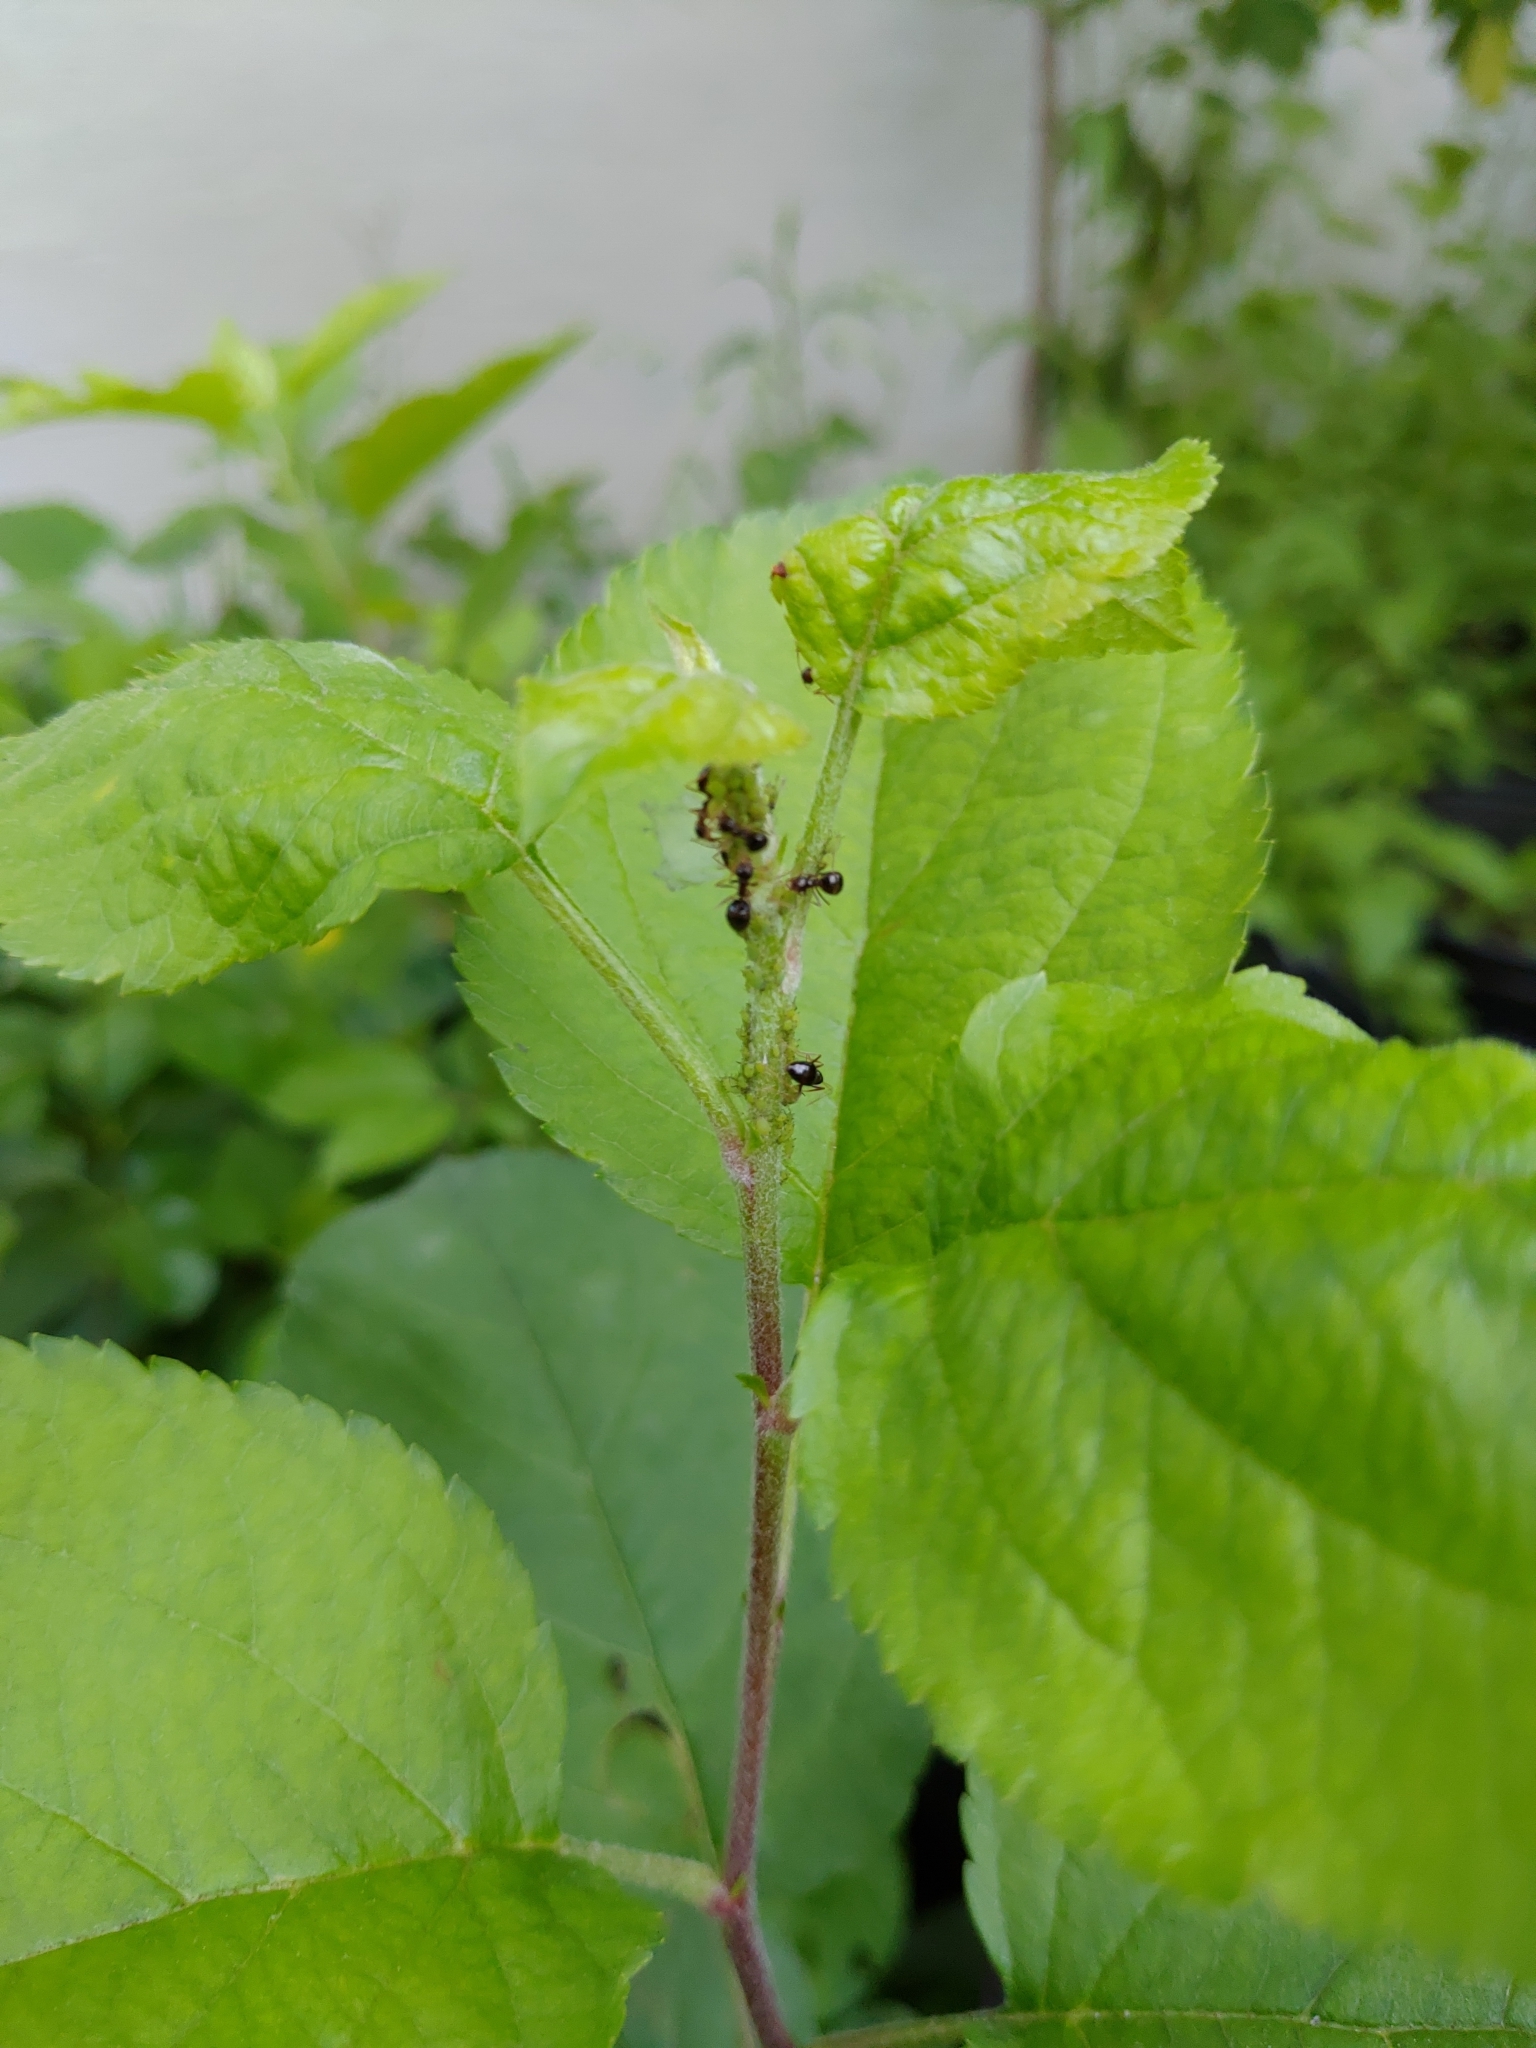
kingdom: Animalia
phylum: Arthropoda
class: Insecta
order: Hymenoptera
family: Formicidae
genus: Prenolepis
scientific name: Prenolepis imparis
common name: Small honey ant
